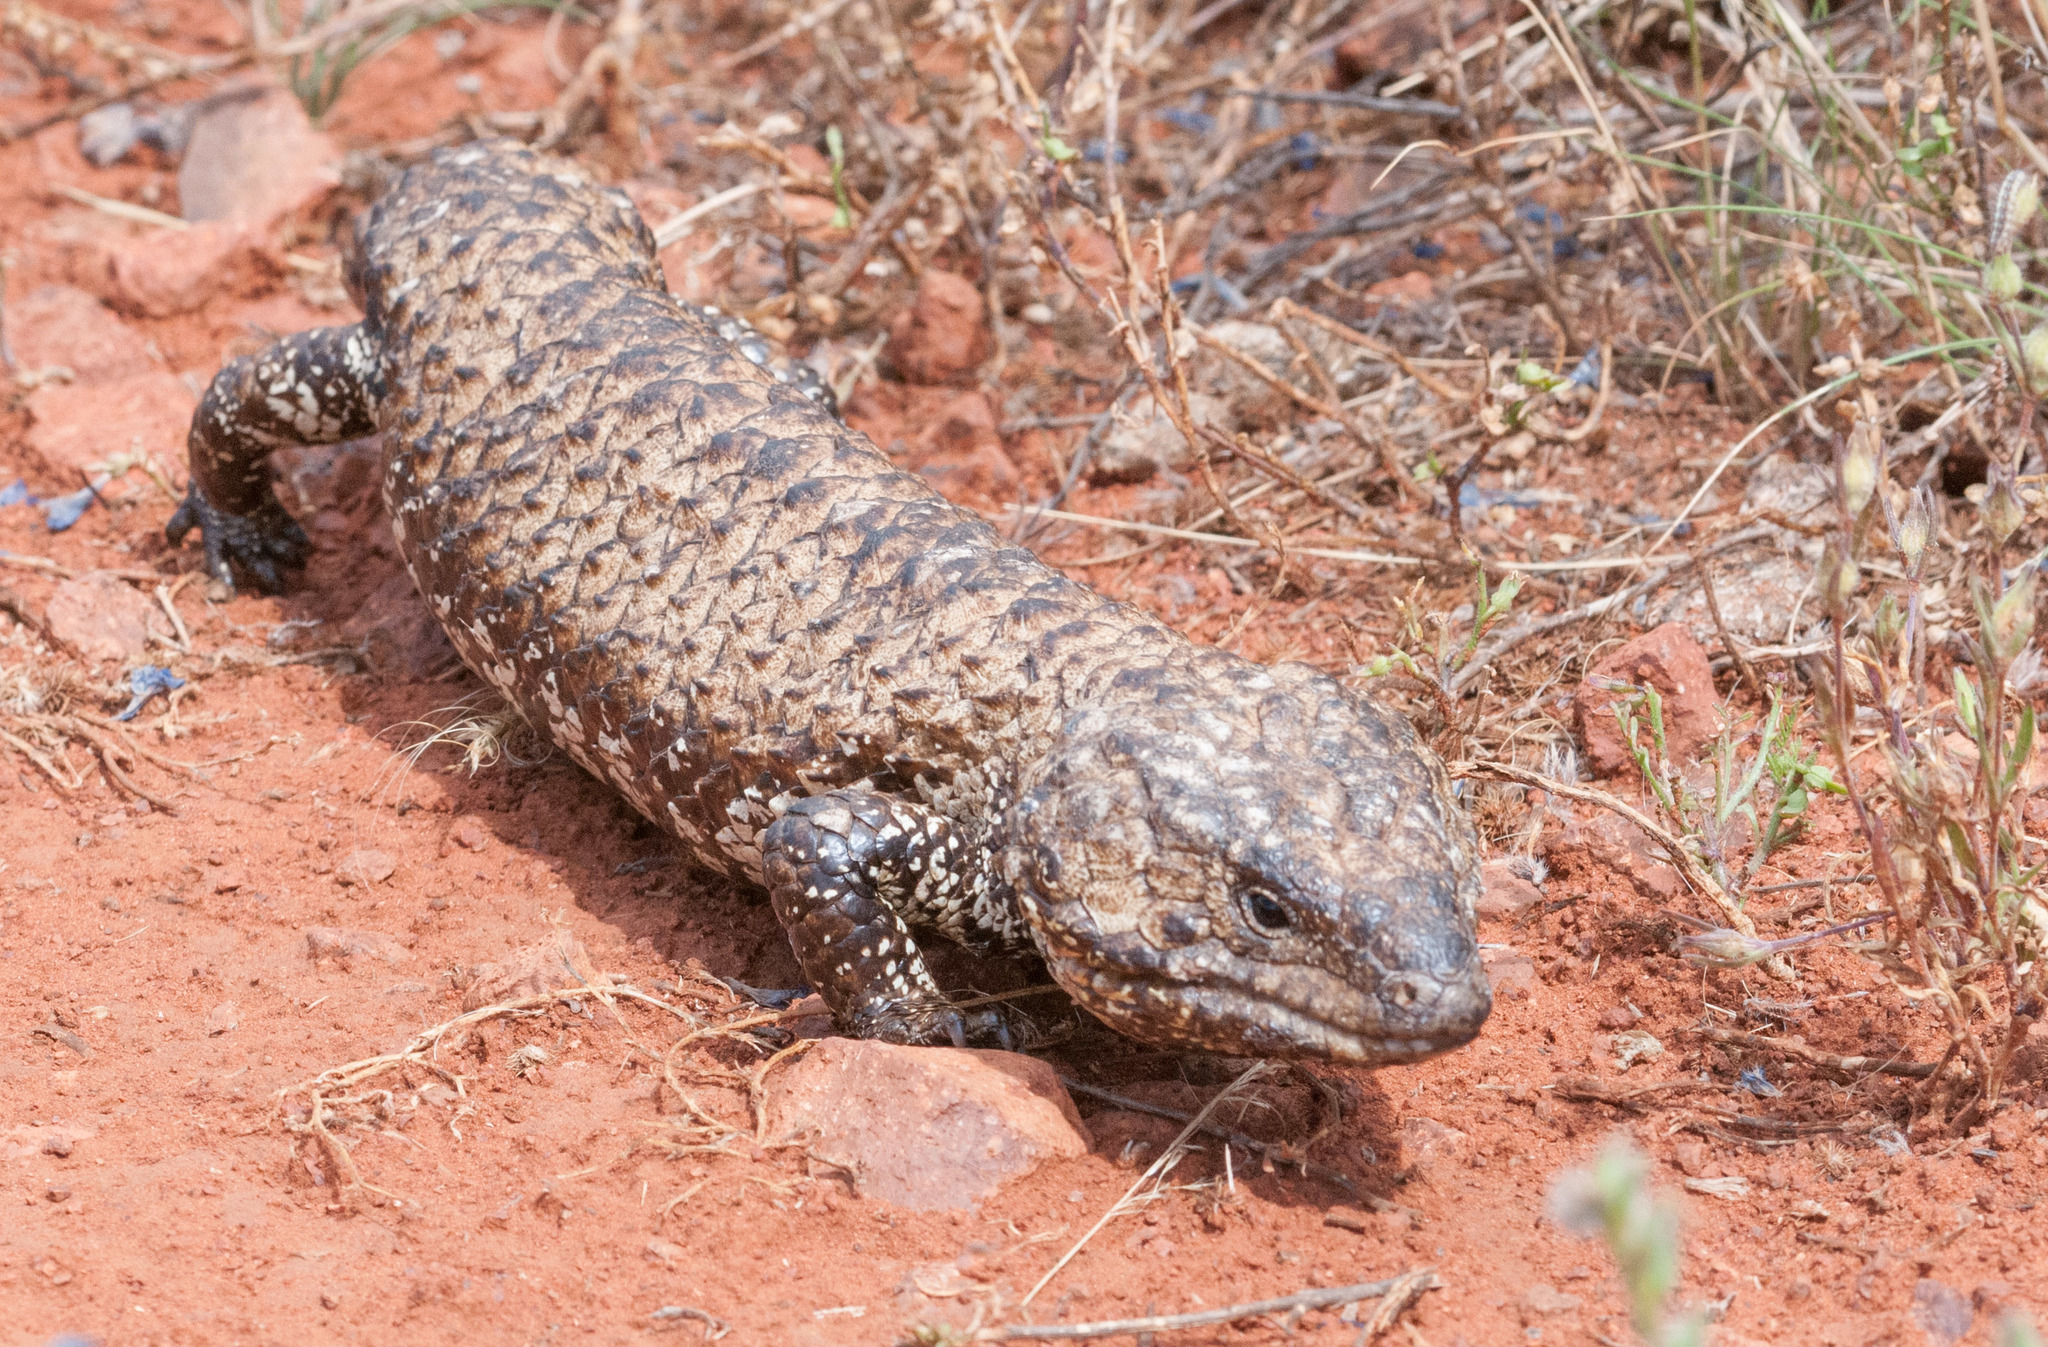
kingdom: Animalia
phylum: Chordata
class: Squamata
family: Scincidae
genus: Tiliqua
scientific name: Tiliqua rugosa
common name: Pinecone lizard
